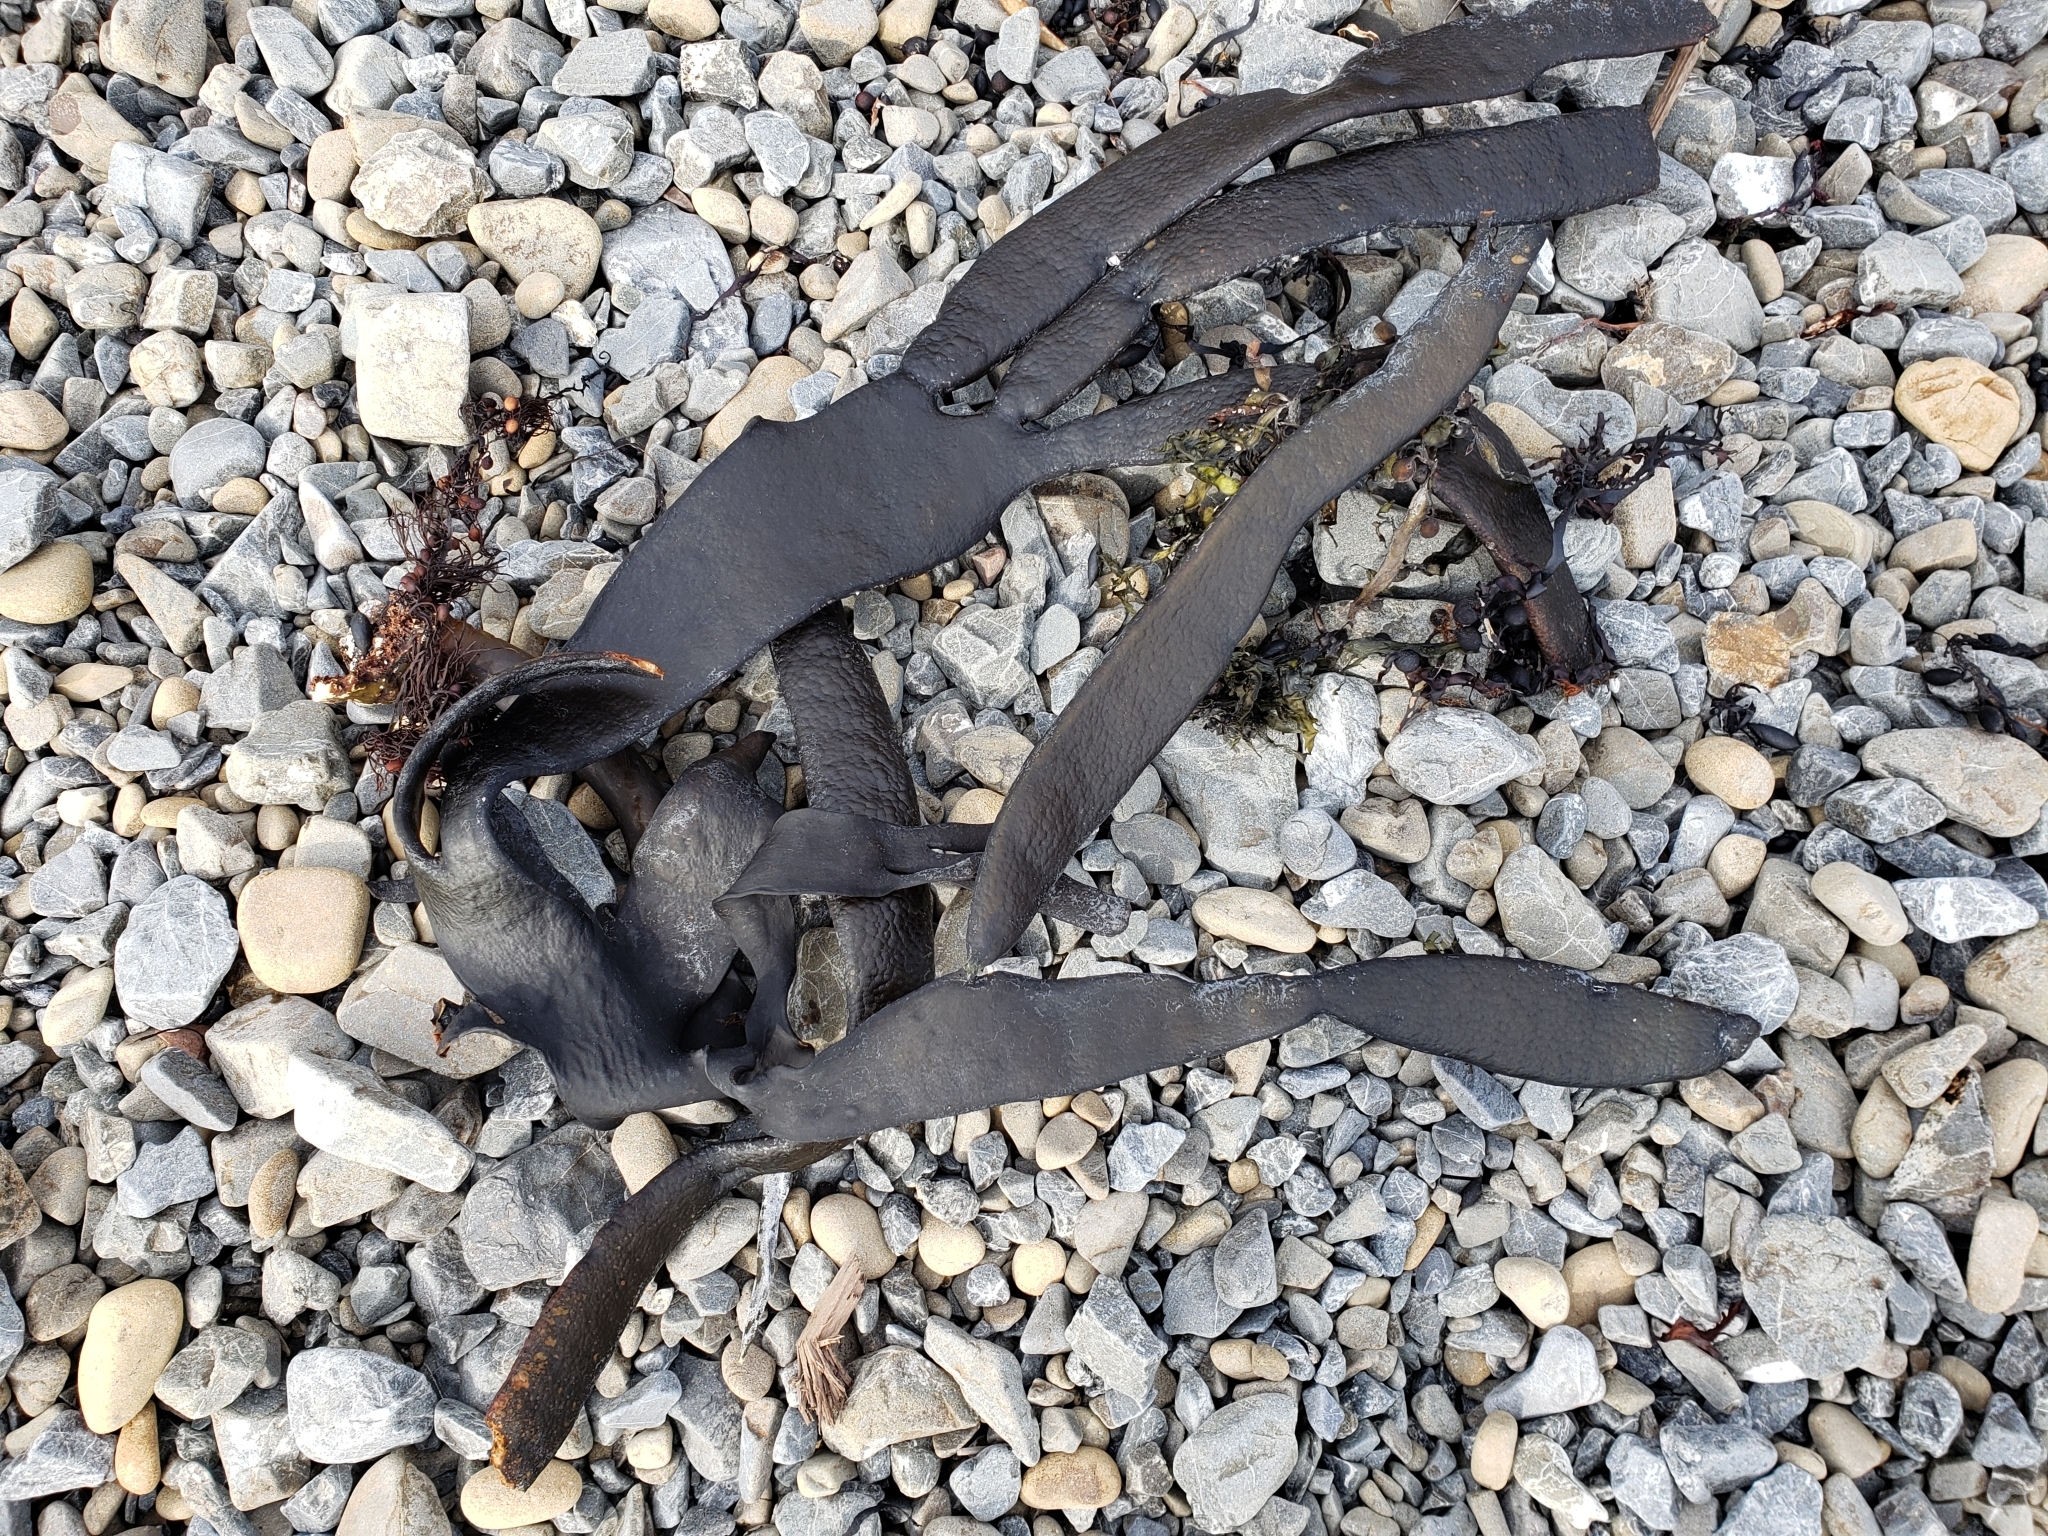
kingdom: Chromista
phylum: Ochrophyta
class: Phaeophyceae
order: Fucales
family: Durvillaeaceae
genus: Durvillaea
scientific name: Durvillaea antarctica
